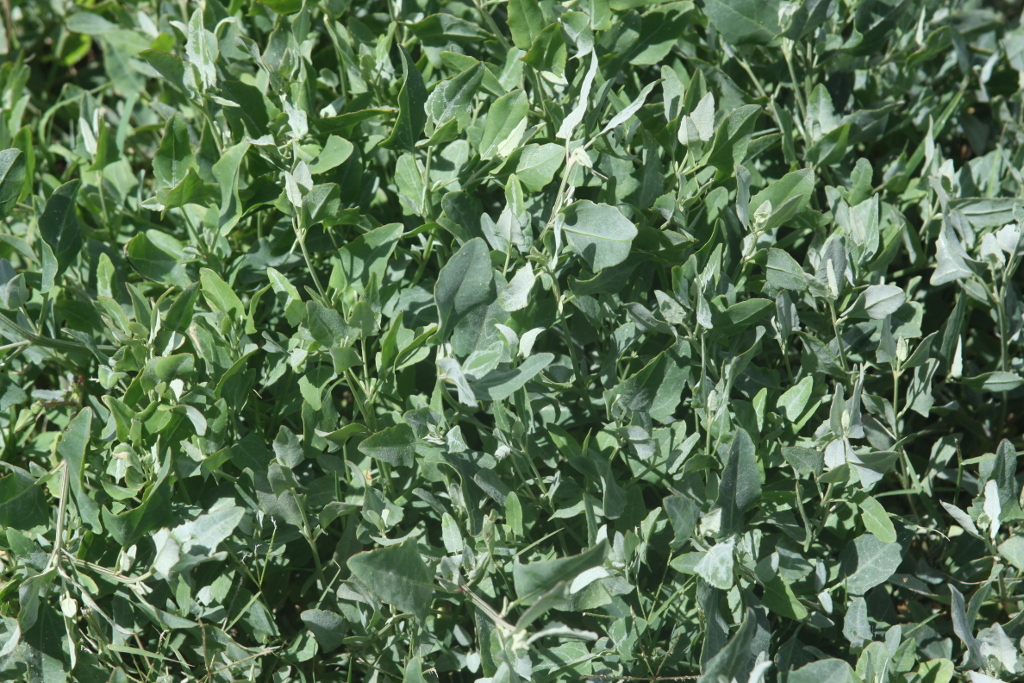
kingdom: Plantae
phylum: Tracheophyta
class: Magnoliopsida
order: Caryophyllales
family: Amaranthaceae
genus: Atriplex
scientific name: Atriplex prostrata
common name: Spear-leaved orache
